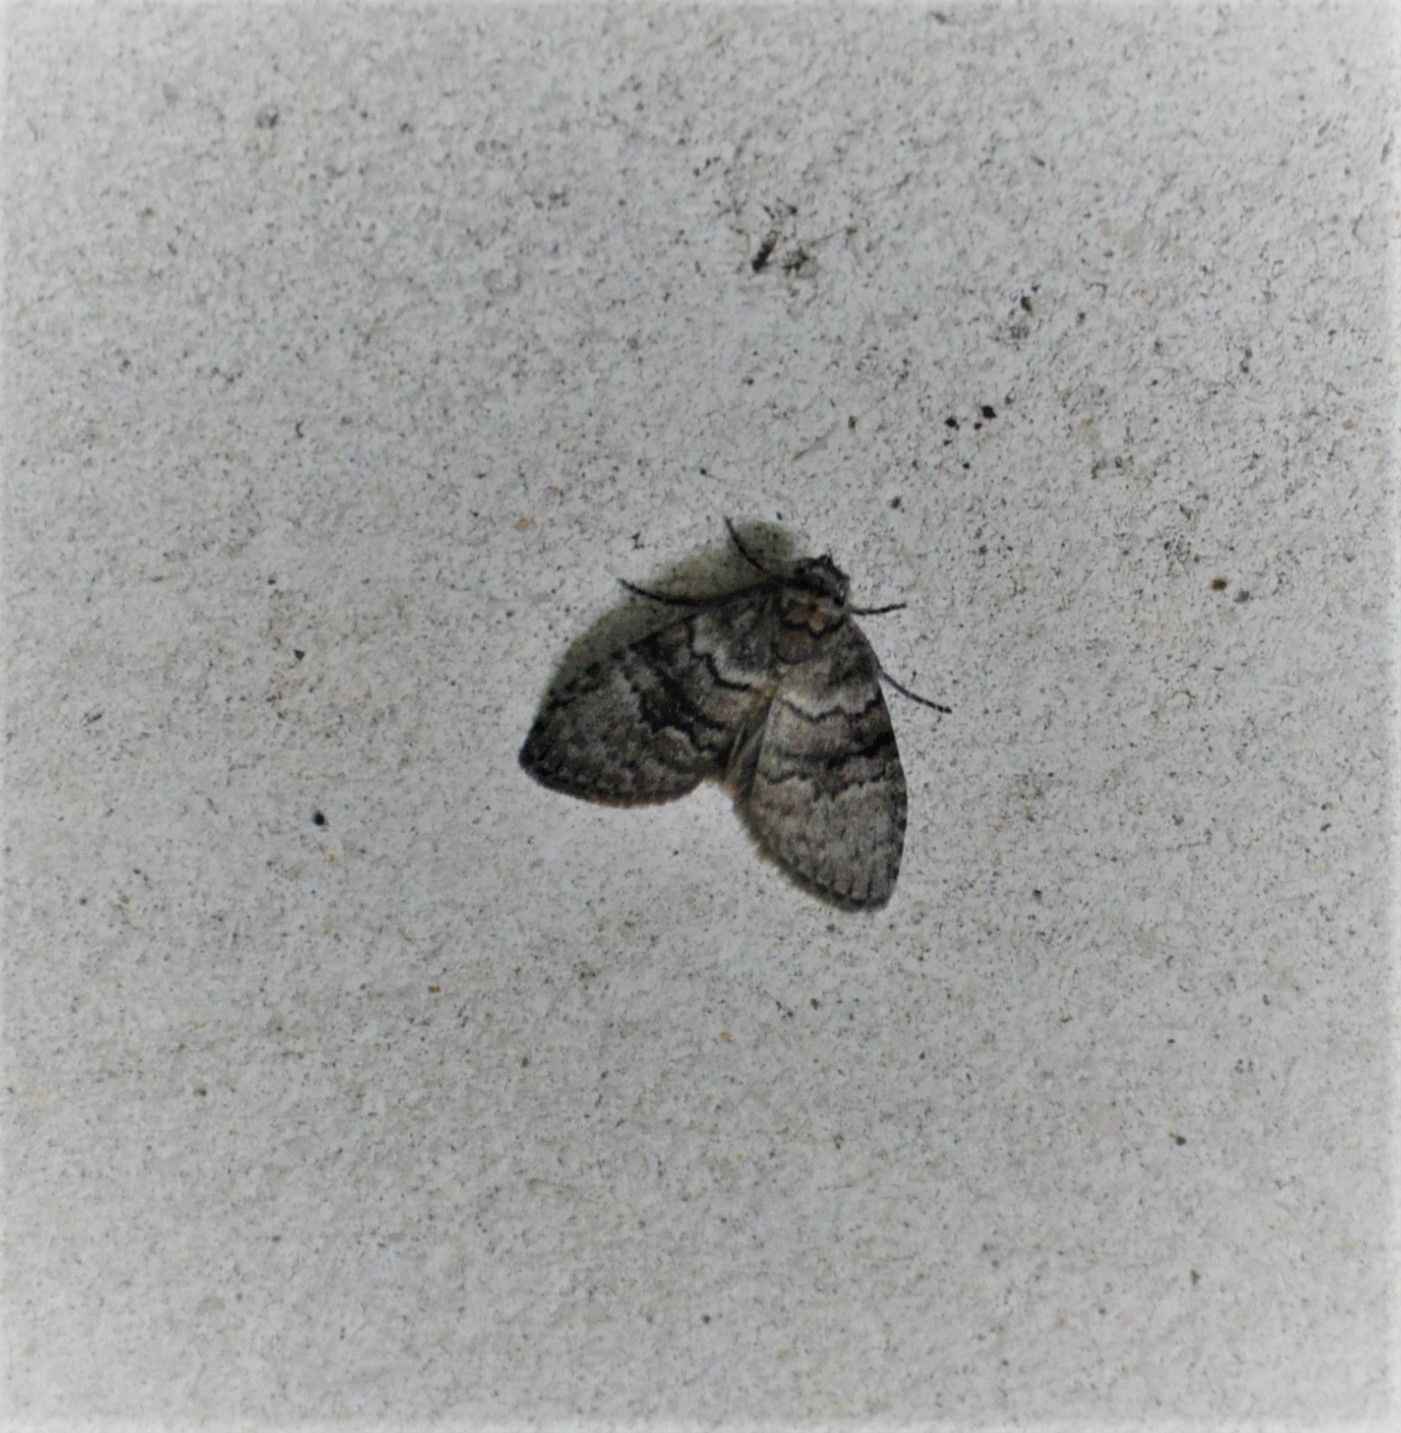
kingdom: Animalia
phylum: Arthropoda
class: Insecta
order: Lepidoptera
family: Nolidae
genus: Uraba
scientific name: Uraba lugens
